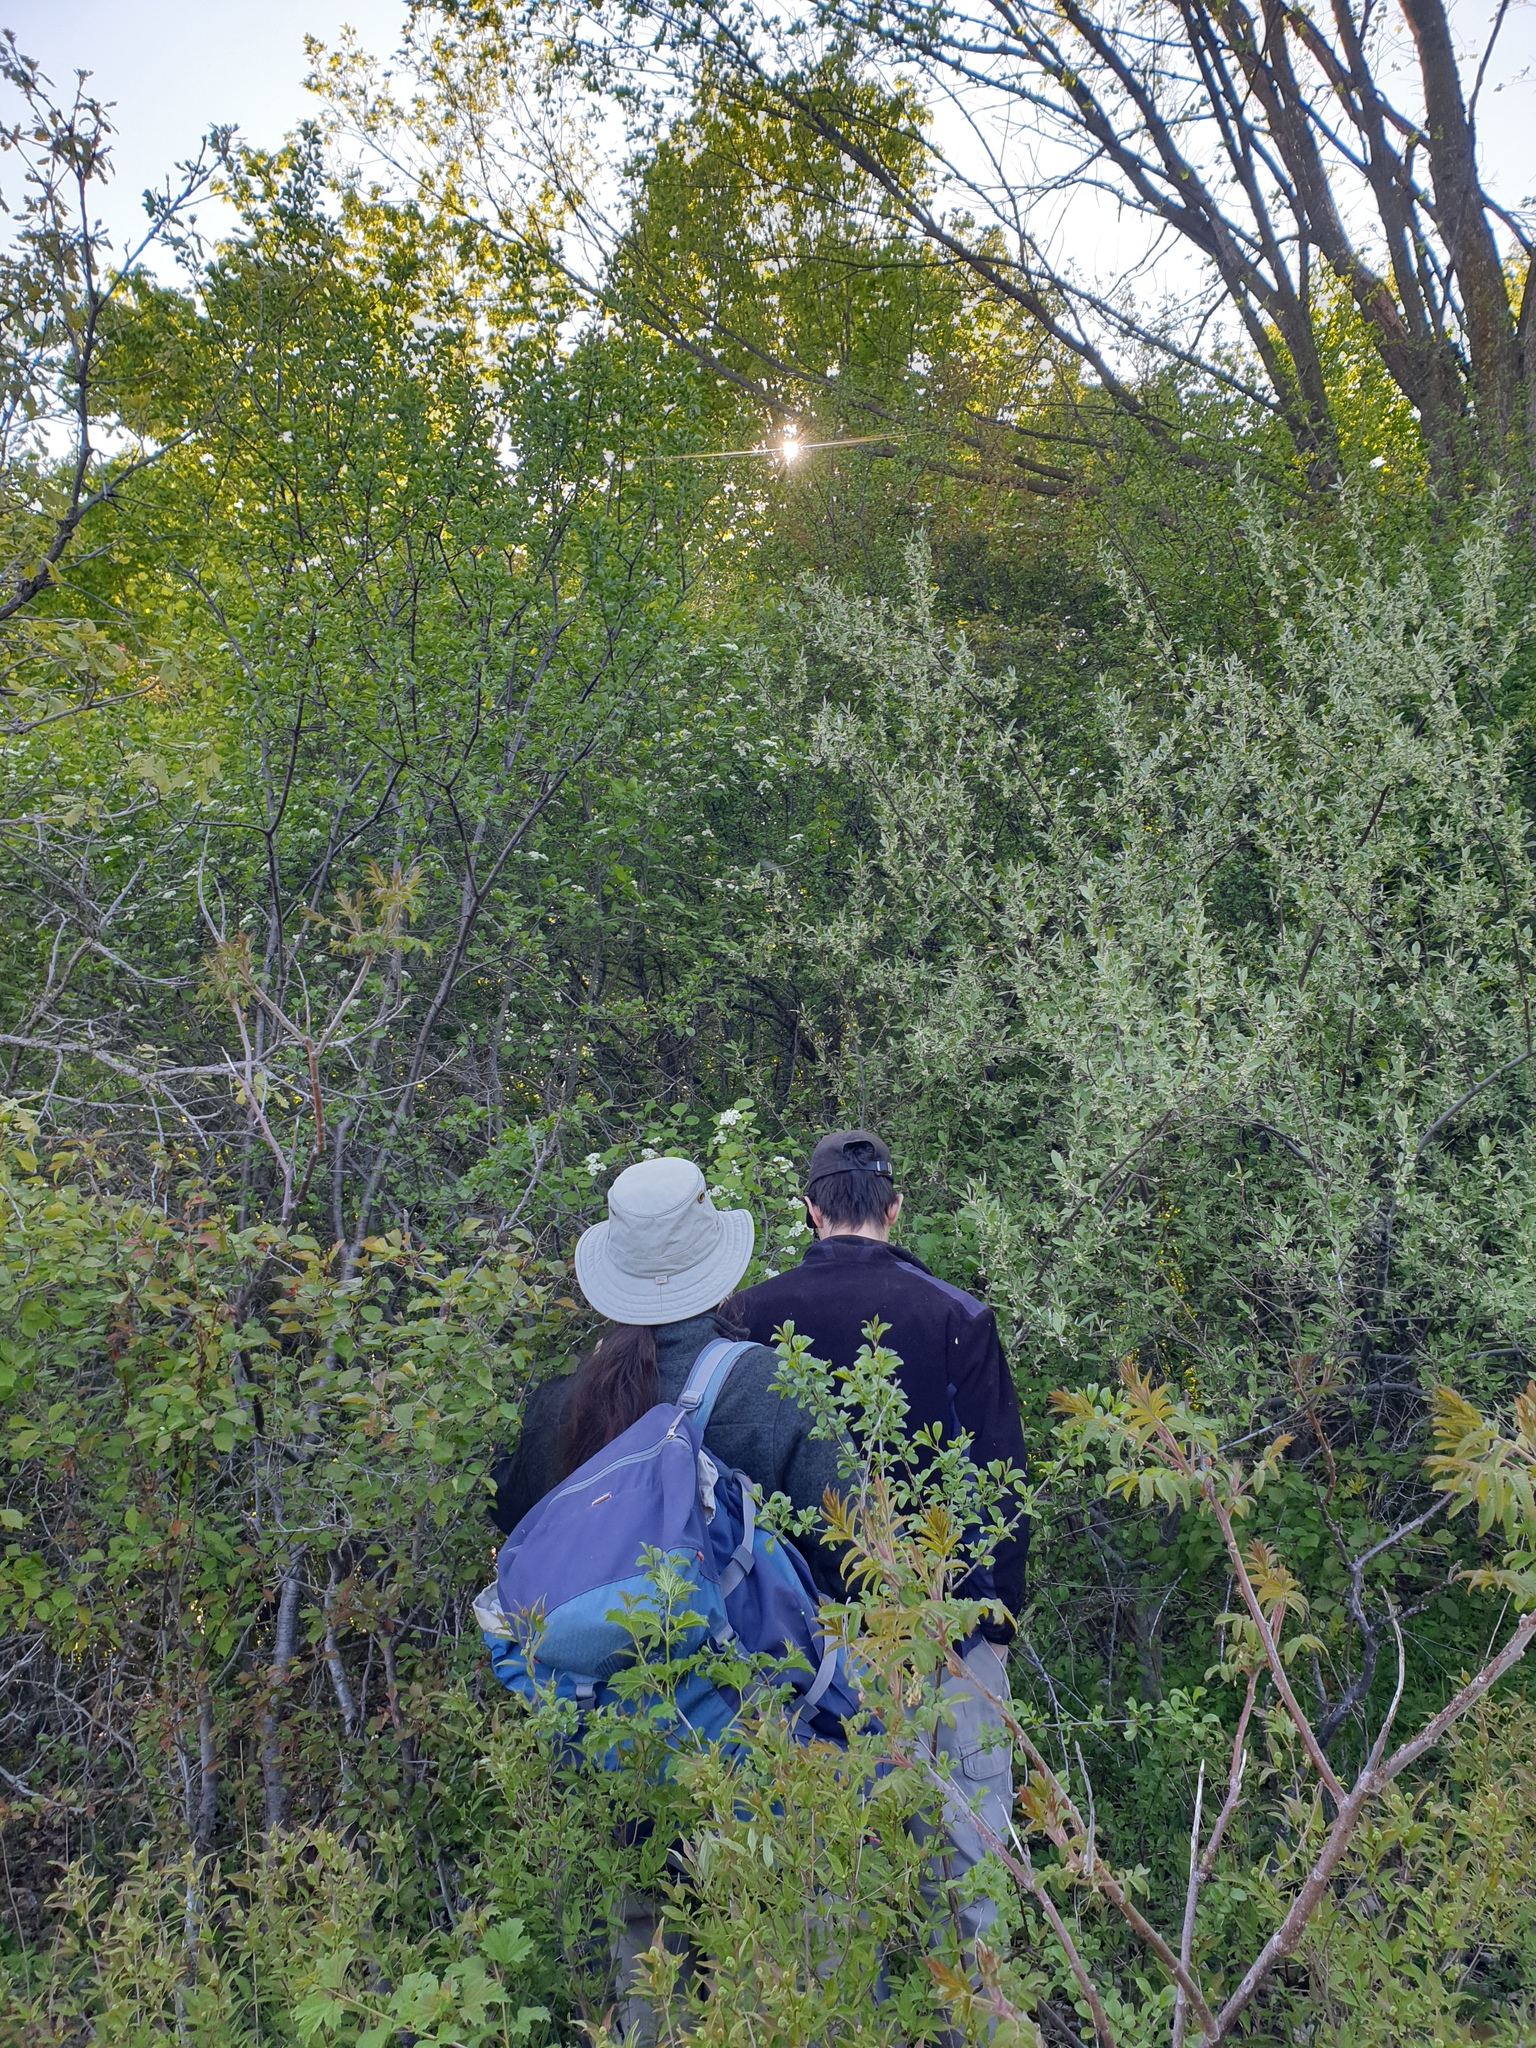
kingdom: Plantae
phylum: Tracheophyta
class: Magnoliopsida
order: Cornales
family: Cornaceae
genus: Cornus
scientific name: Cornus racemosa
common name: Panicled dogwood
